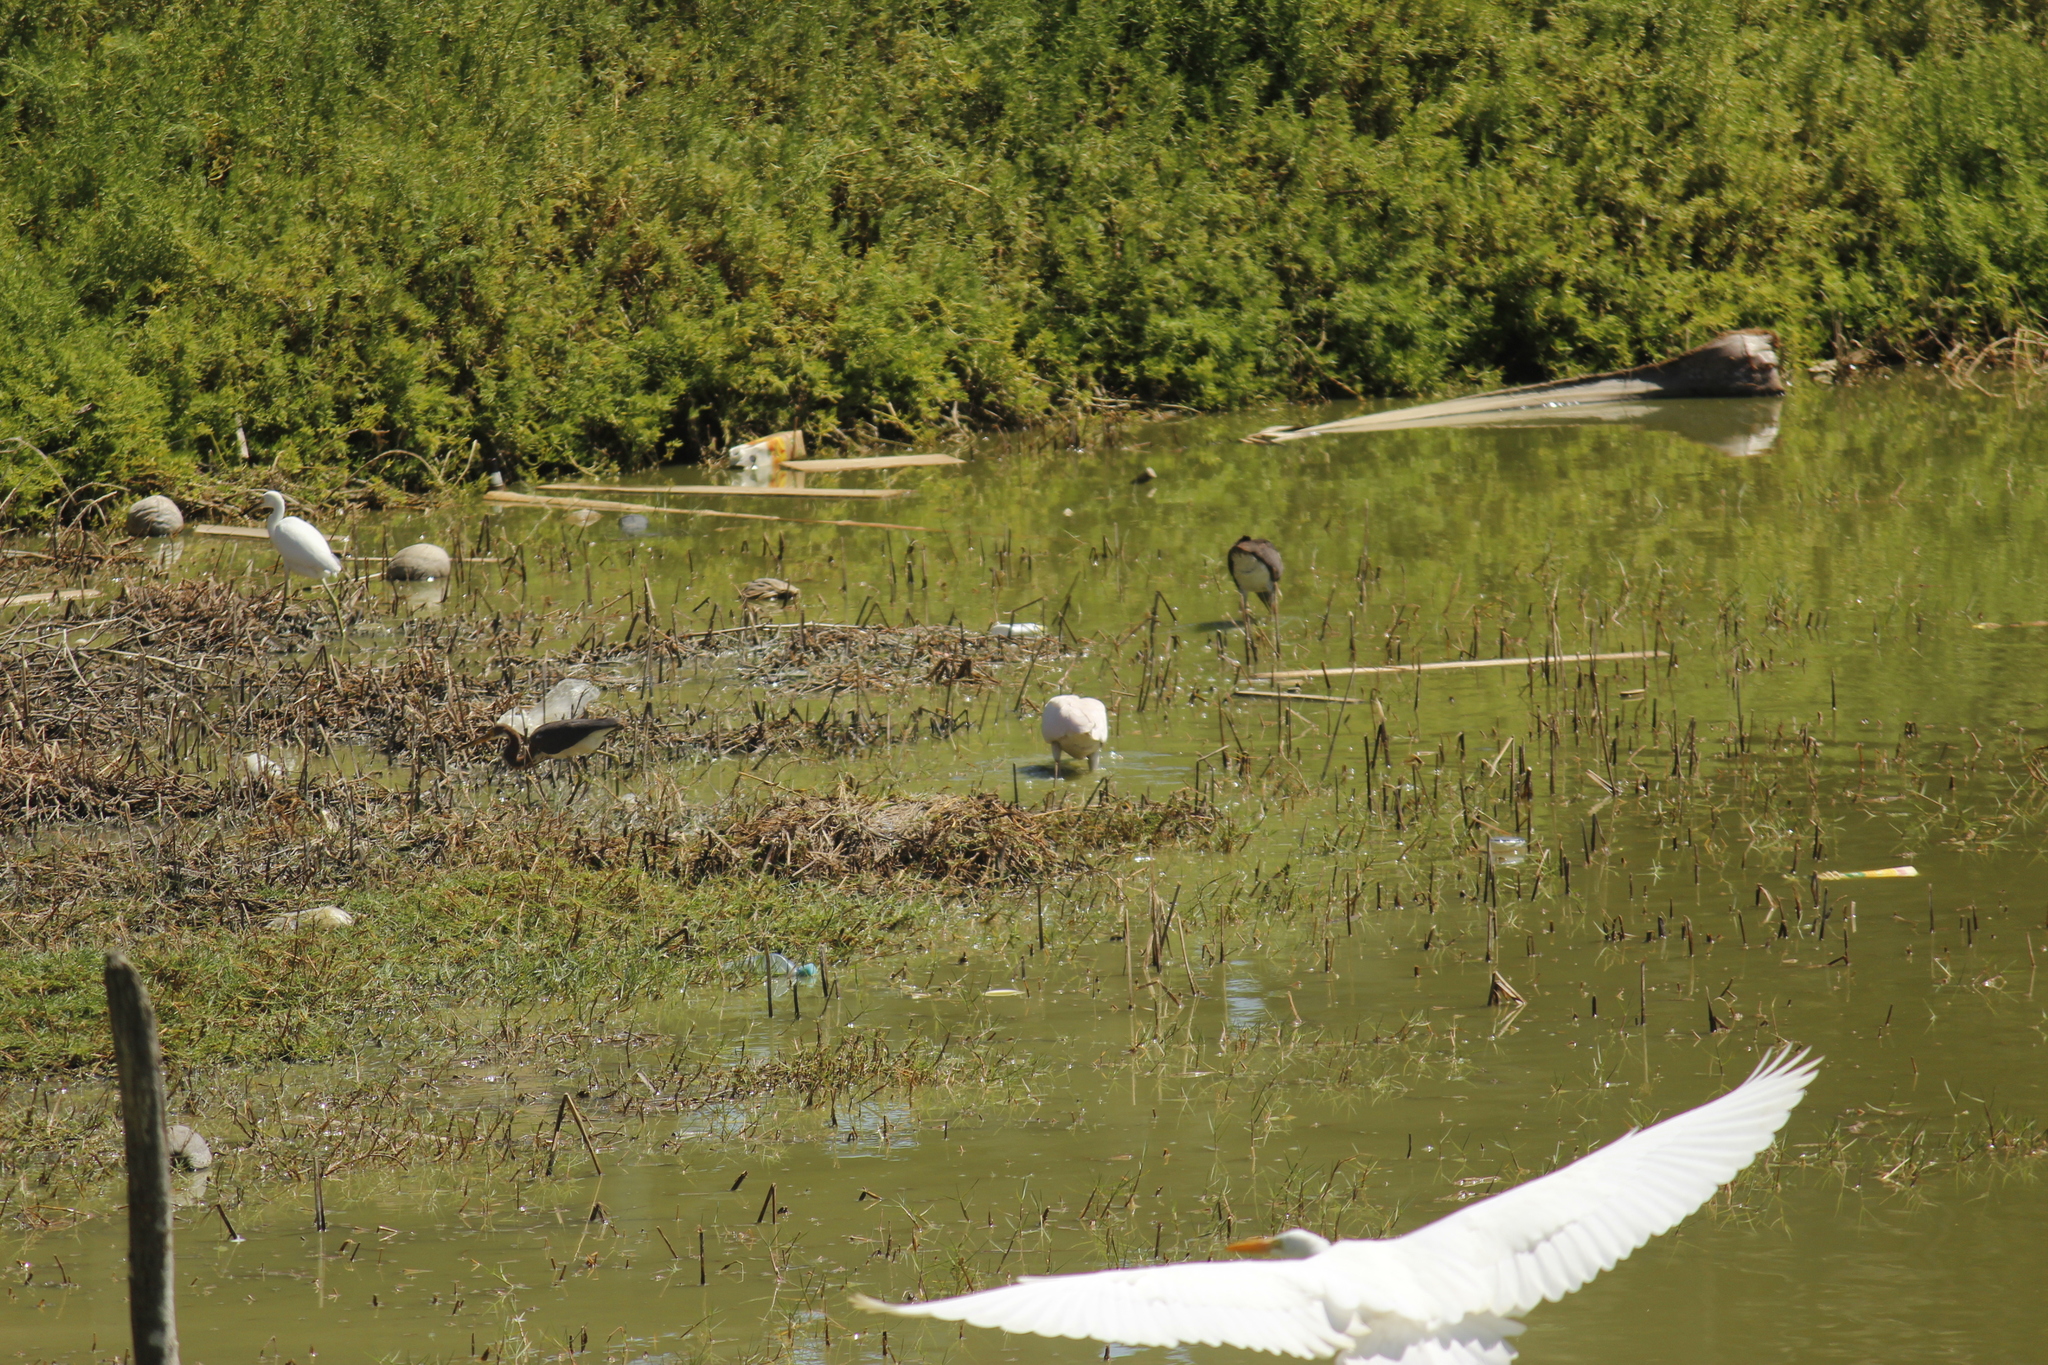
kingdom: Animalia
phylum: Chordata
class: Aves
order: Pelecaniformes
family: Ardeidae
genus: Ardea
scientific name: Ardea alba
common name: Great egret
